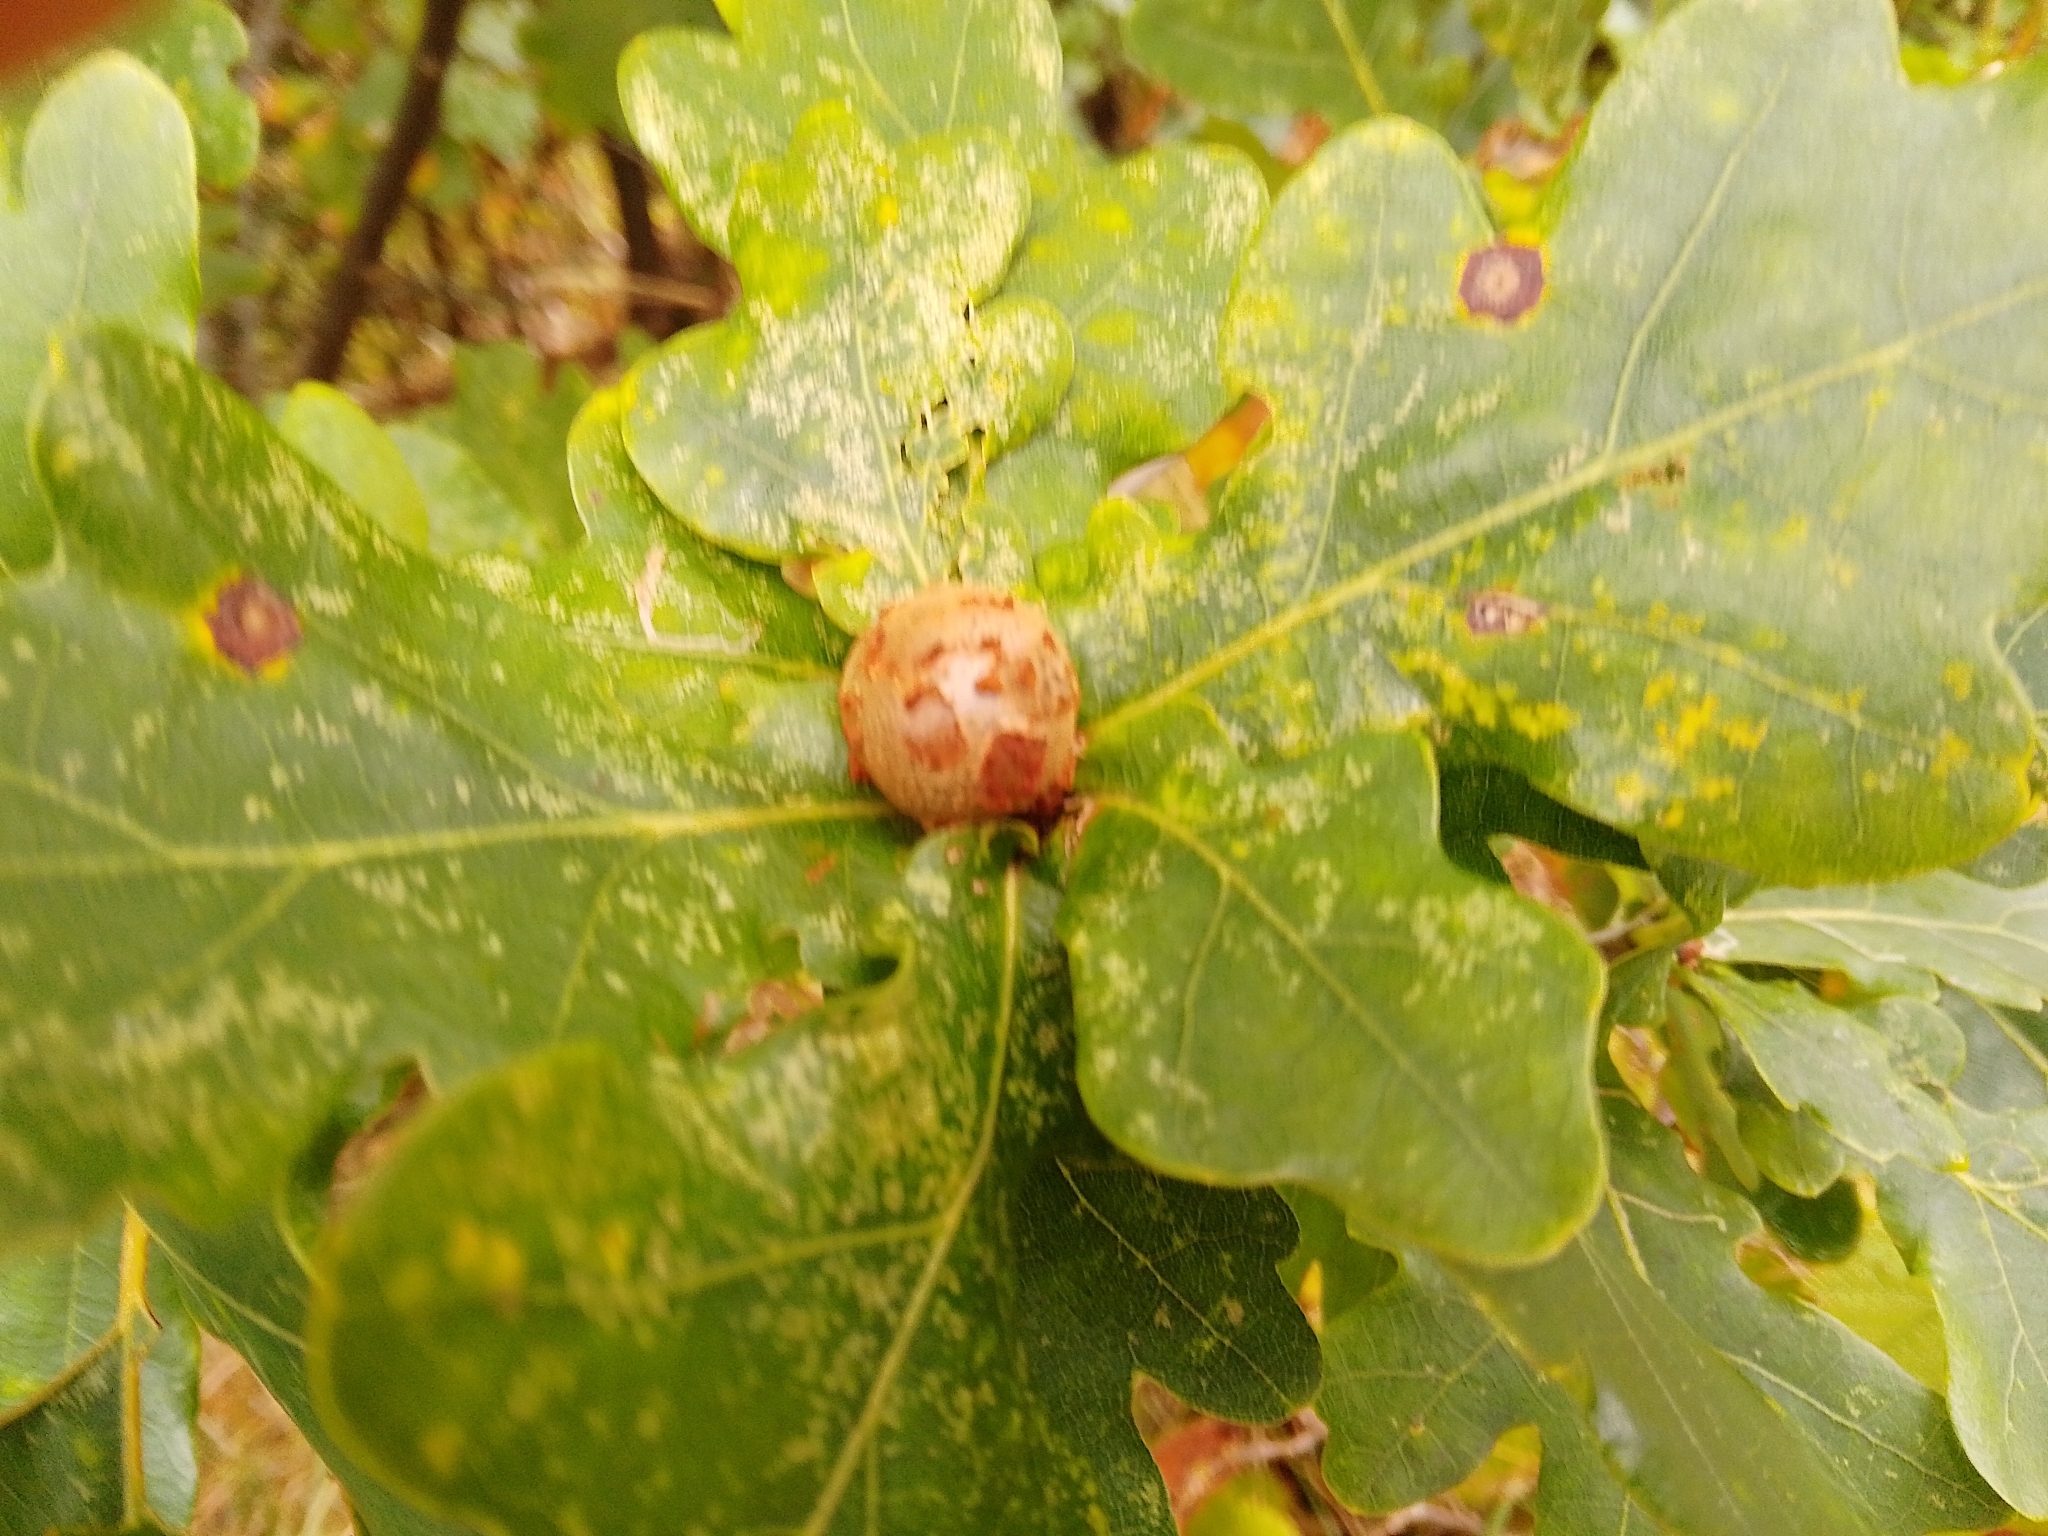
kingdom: Animalia
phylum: Arthropoda
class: Insecta
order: Hymenoptera
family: Cynipidae
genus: Andricus
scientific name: Andricus lignicolus
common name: Cola-nut gall
